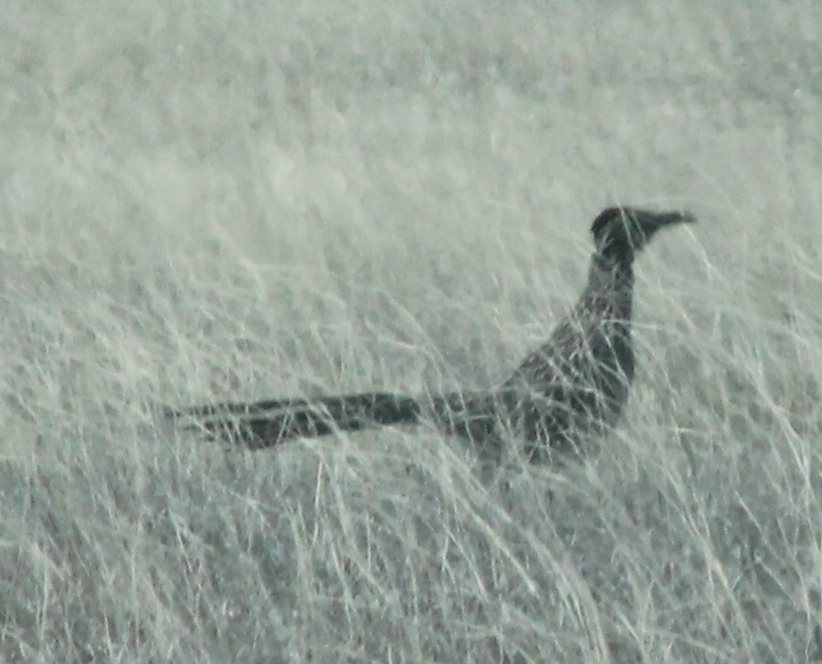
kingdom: Animalia
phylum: Chordata
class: Aves
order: Cuculiformes
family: Cuculidae
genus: Geococcyx
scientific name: Geococcyx californianus
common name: Greater roadrunner
